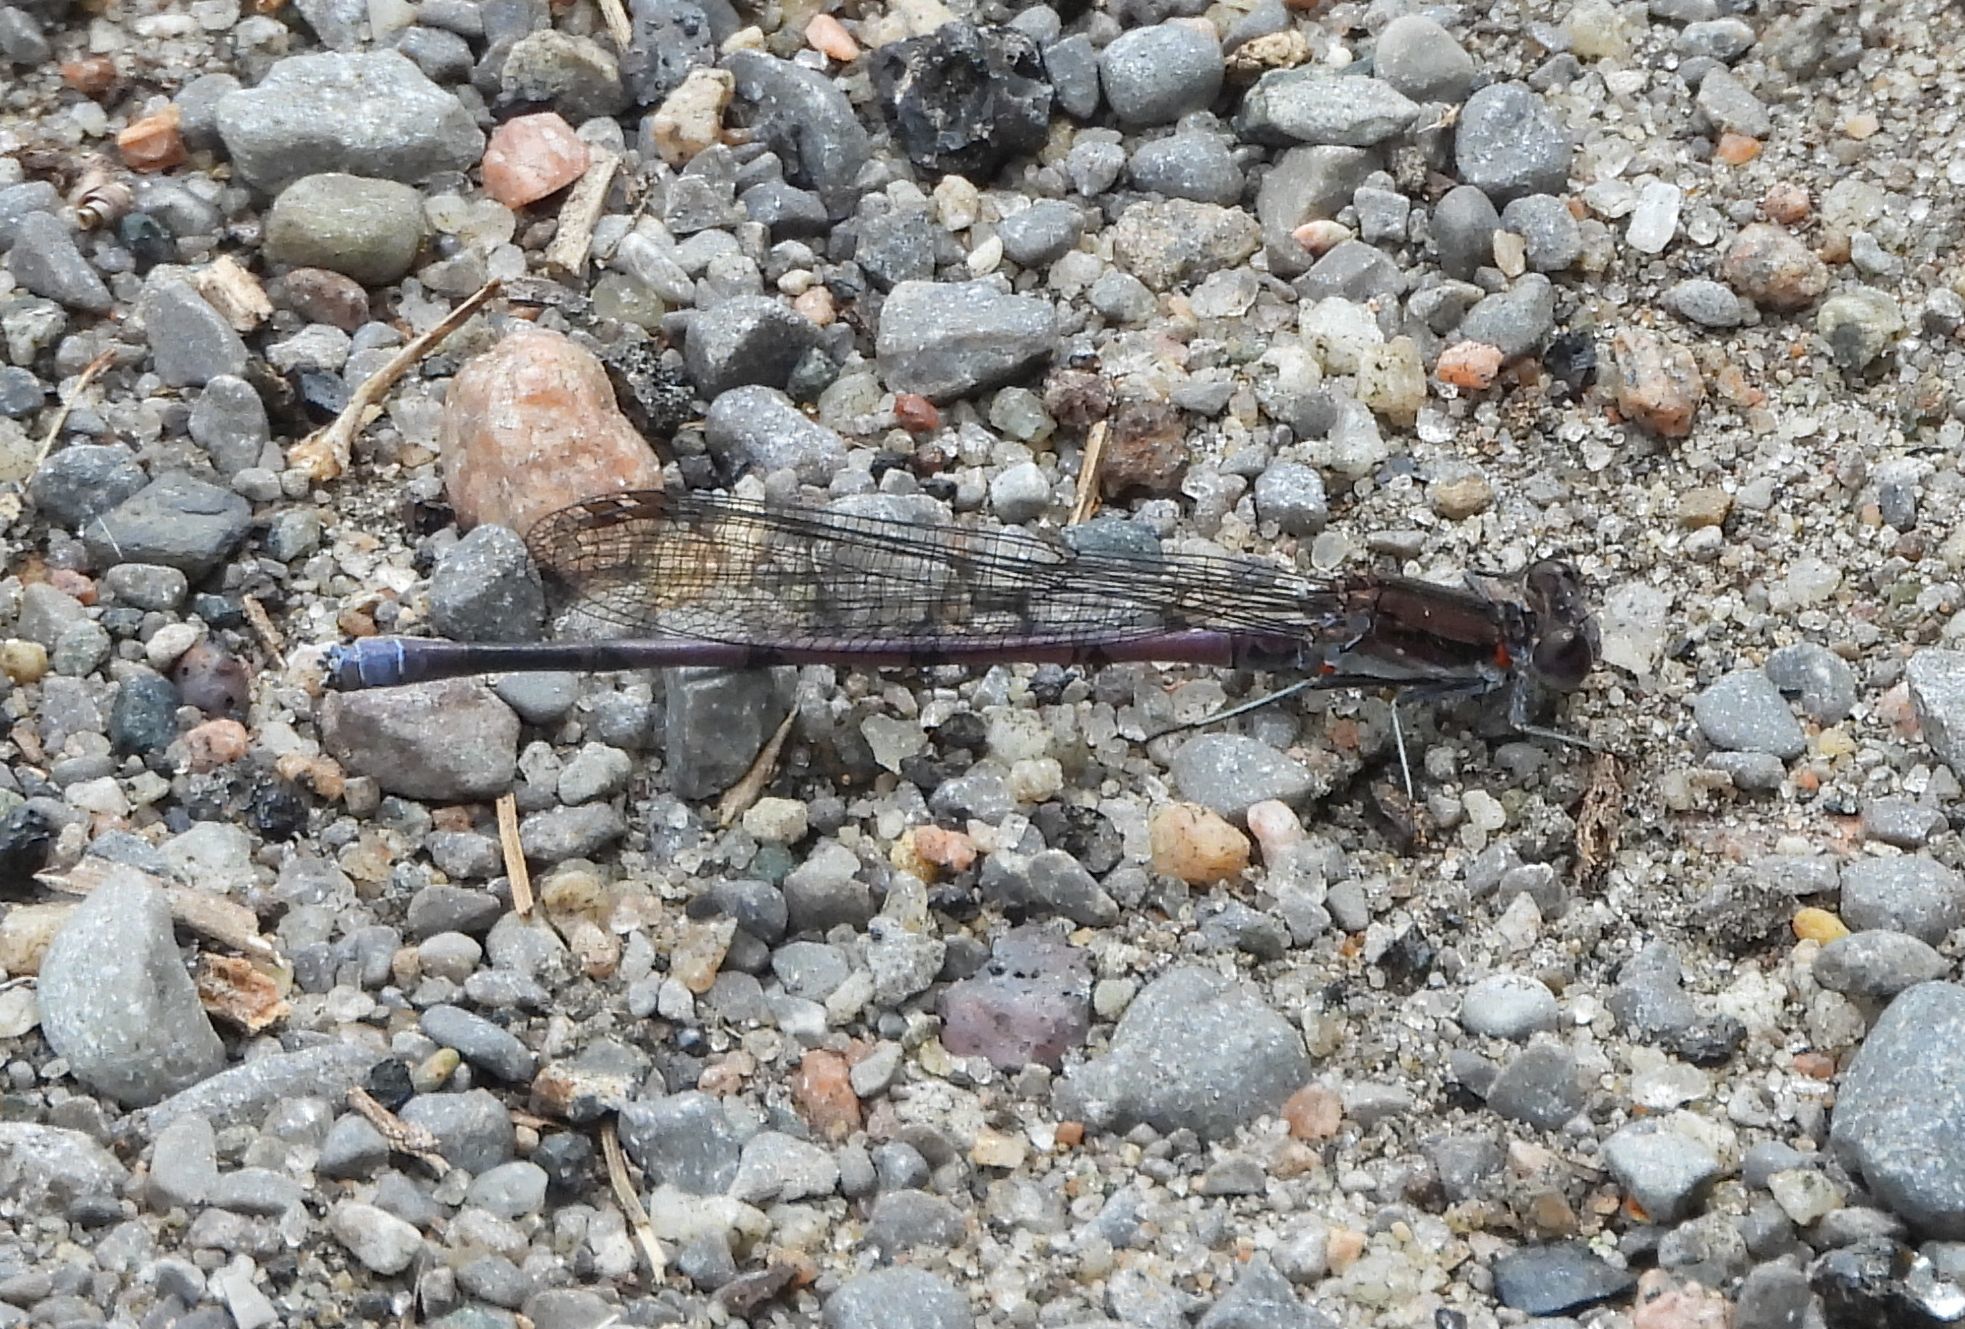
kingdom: Animalia
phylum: Arthropoda
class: Insecta
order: Odonata
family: Coenagrionidae
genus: Argia
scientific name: Argia fumipennis
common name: Variable dancer
